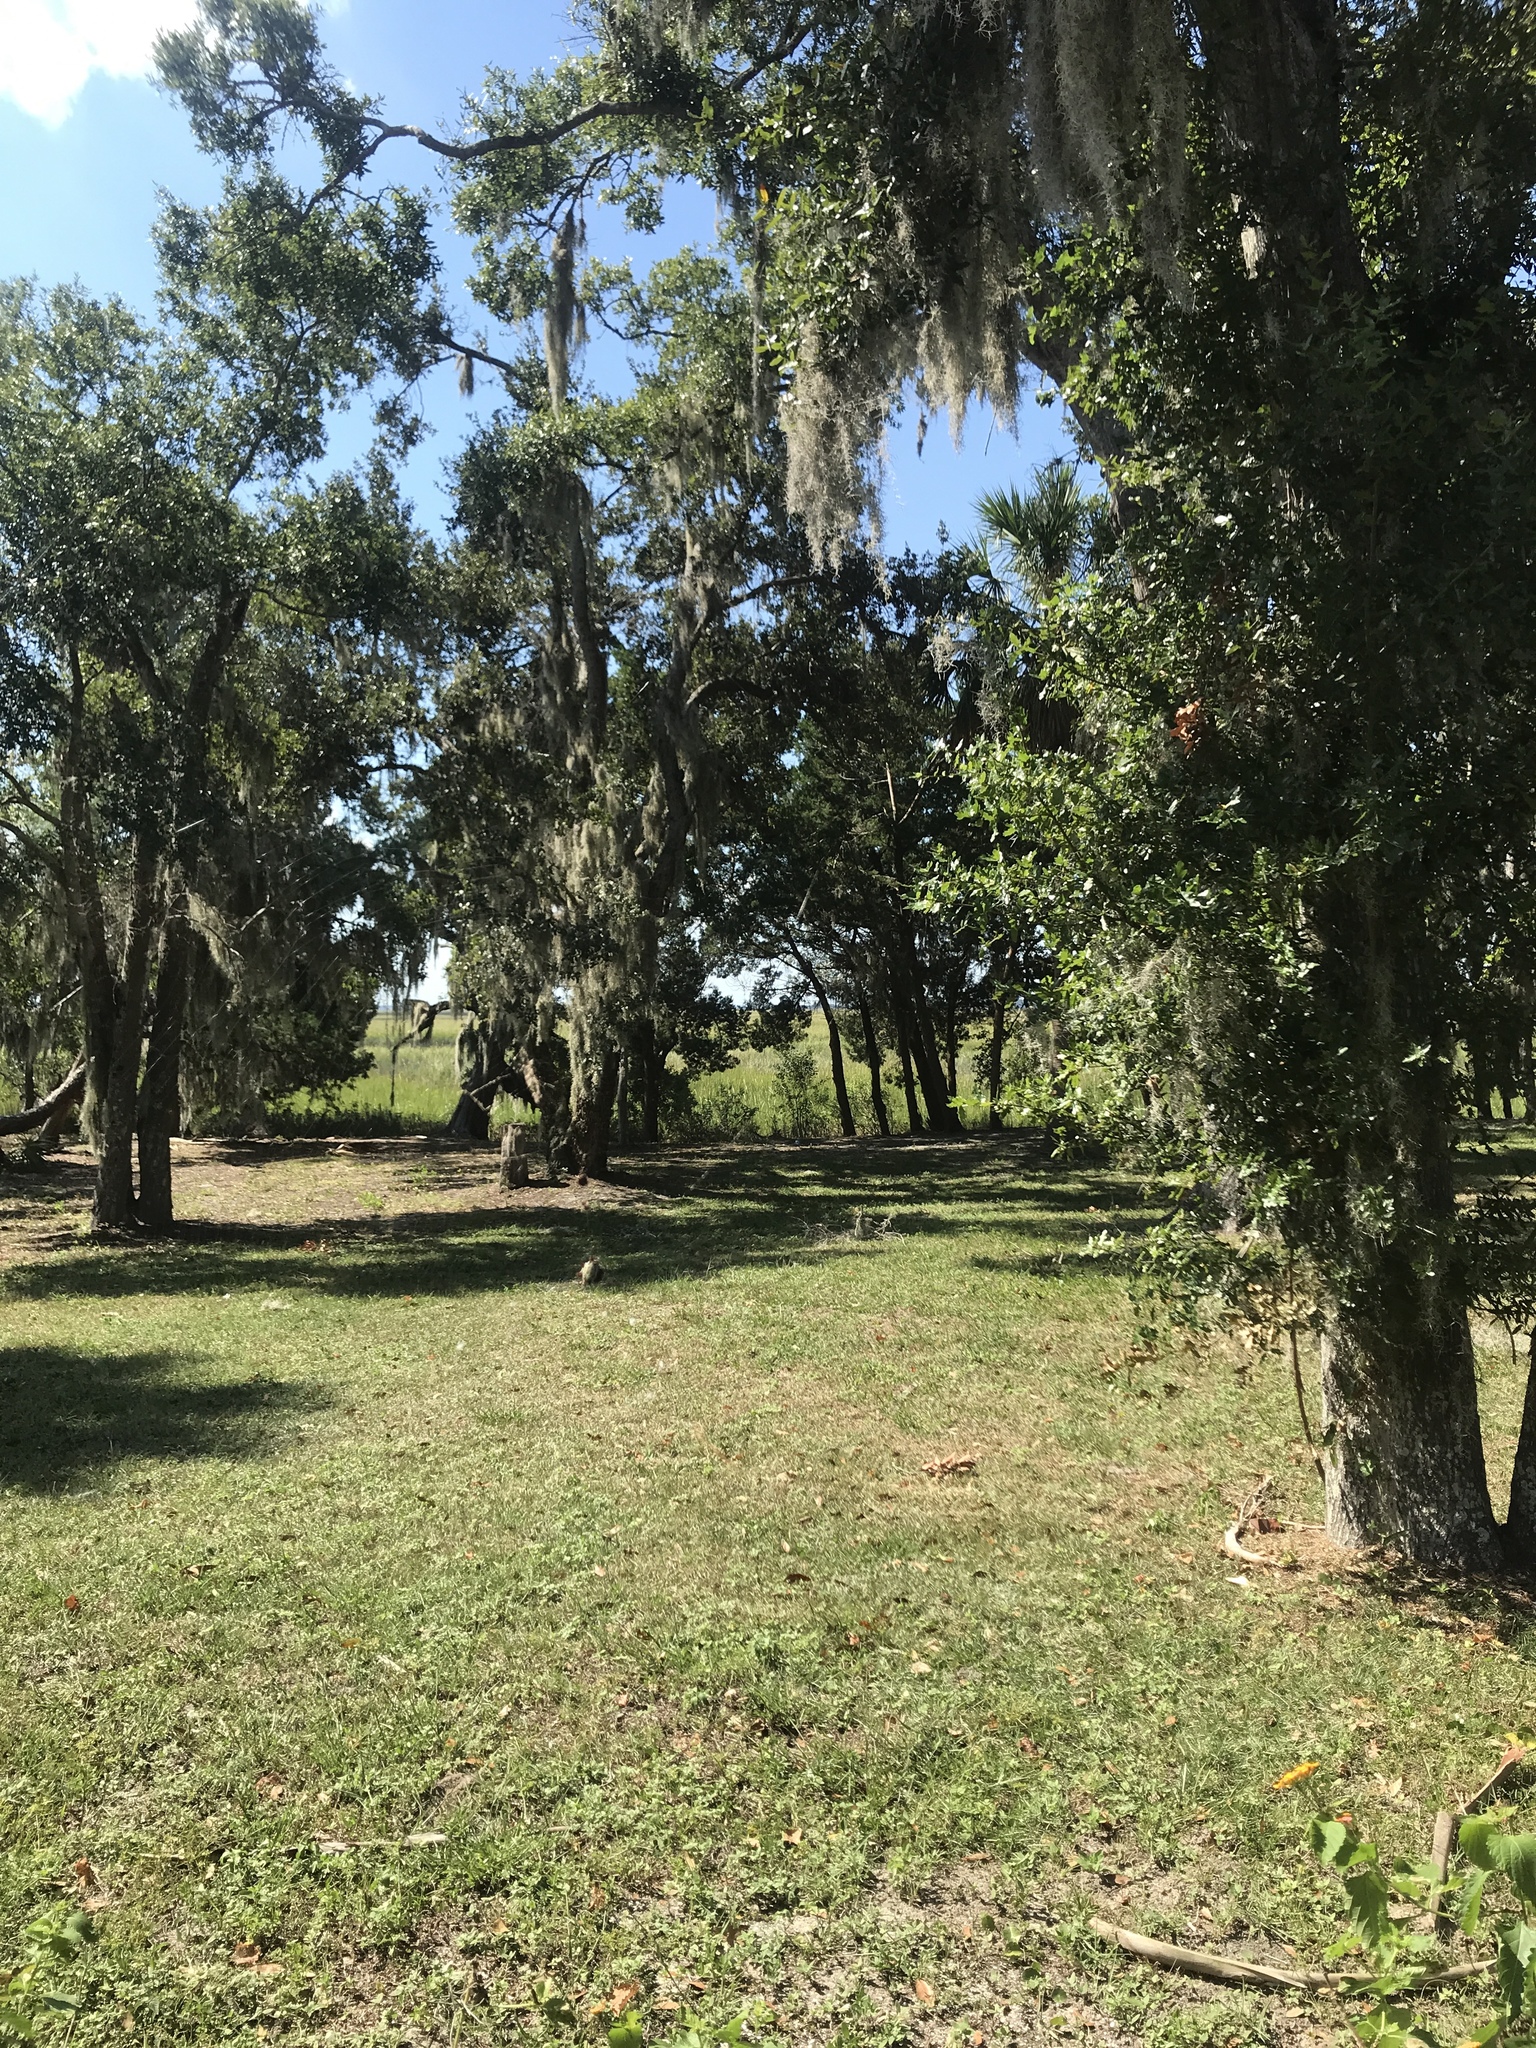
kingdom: Animalia
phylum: Arthropoda
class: Arachnida
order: Araneae
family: Araneidae
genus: Gasteracantha
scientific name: Gasteracantha cancriformis
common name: Orb weavers
